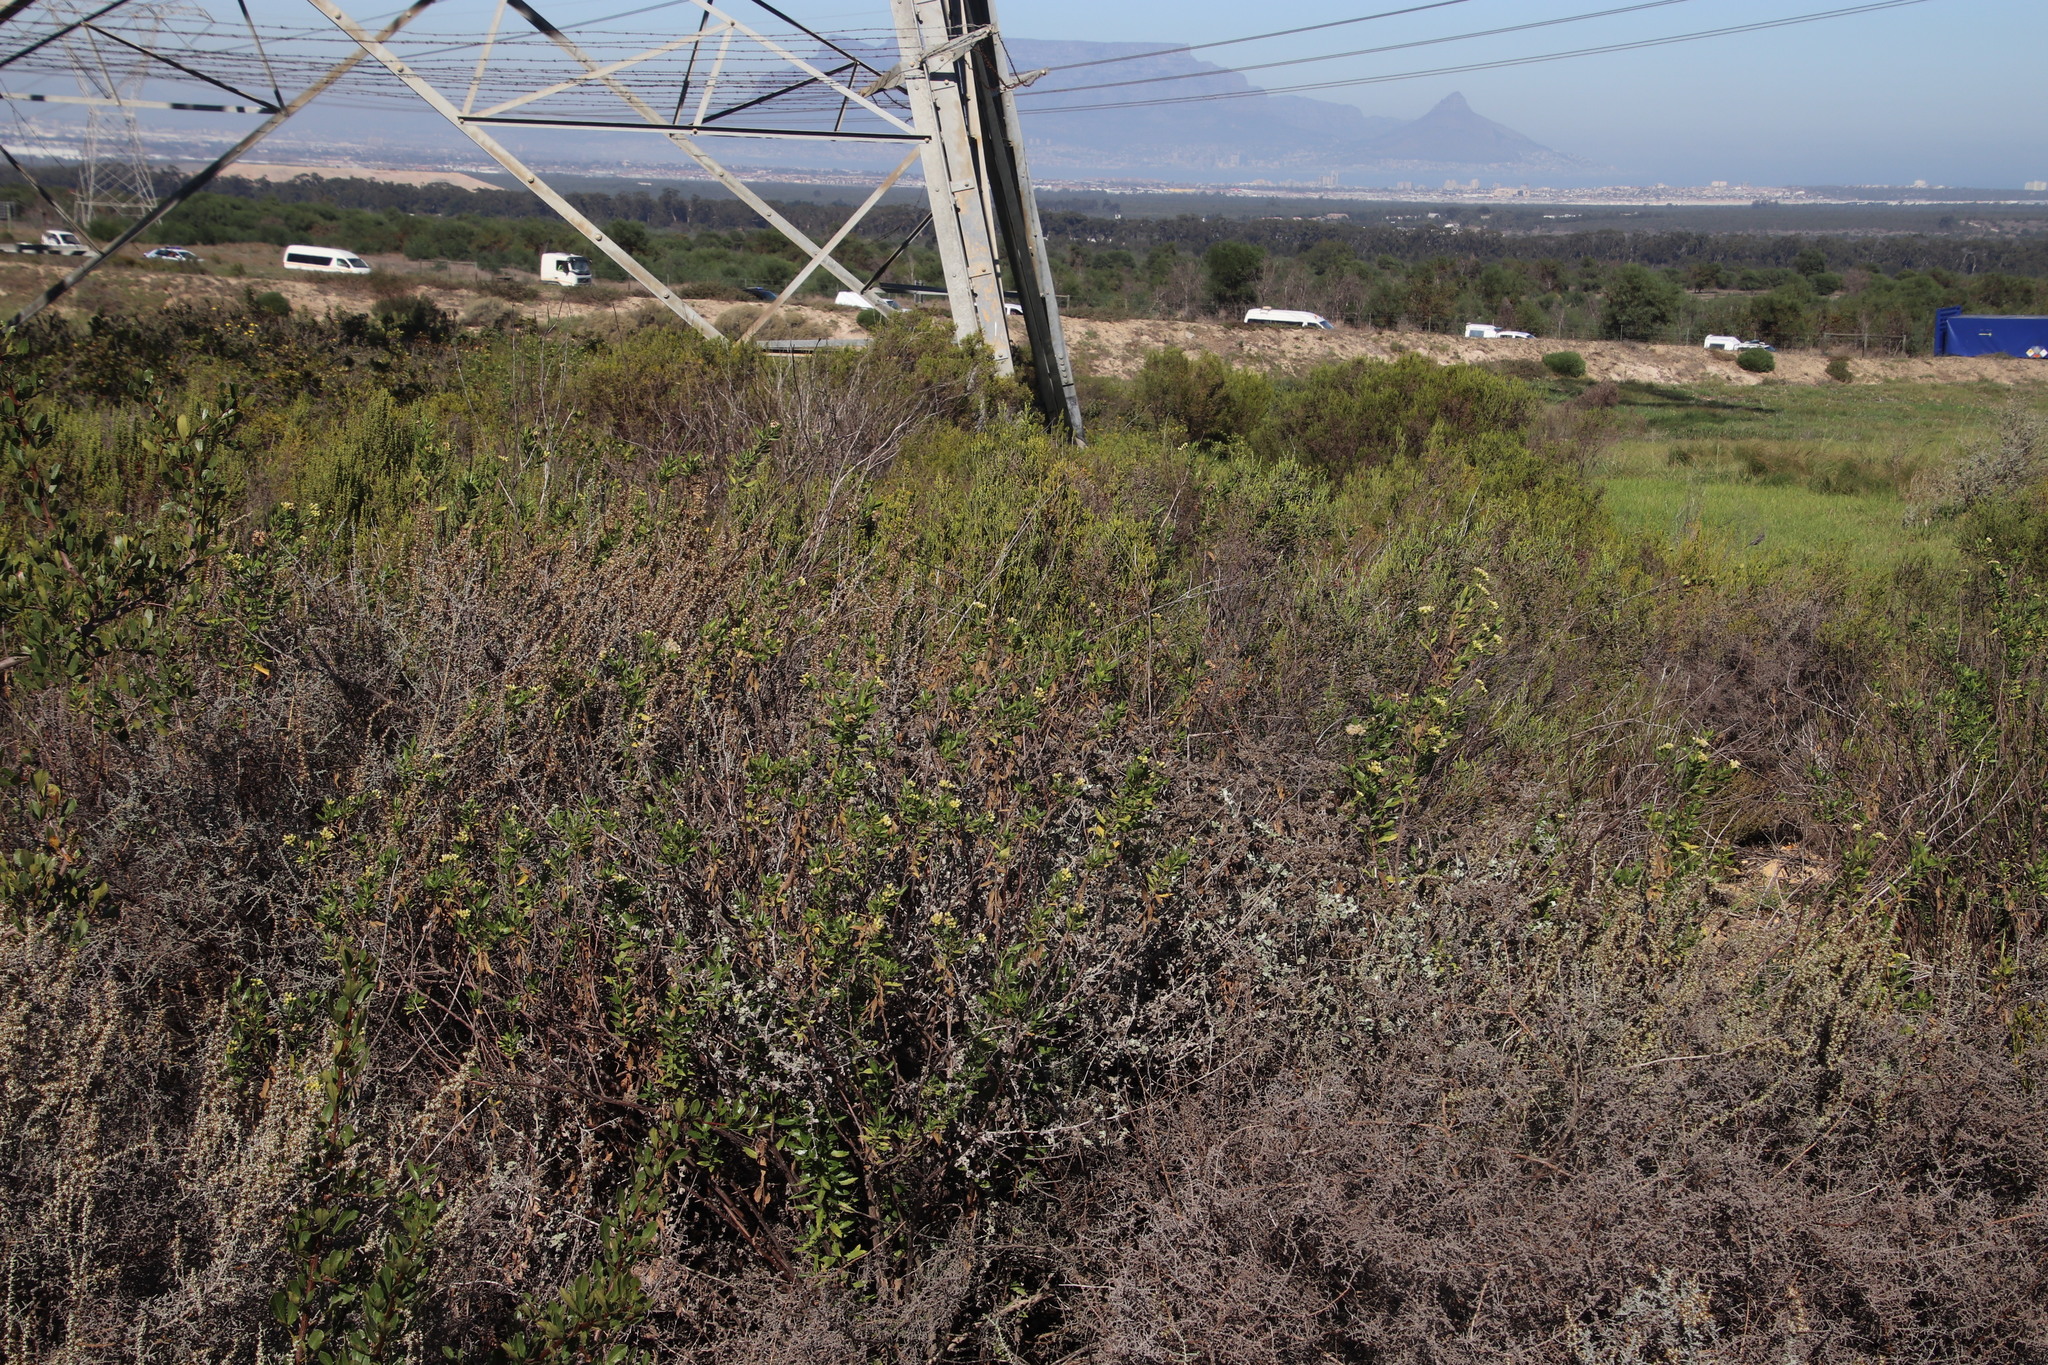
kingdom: Plantae
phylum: Tracheophyta
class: Magnoliopsida
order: Asterales
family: Asteraceae
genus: Nidorella
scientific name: Nidorella ivifolia
